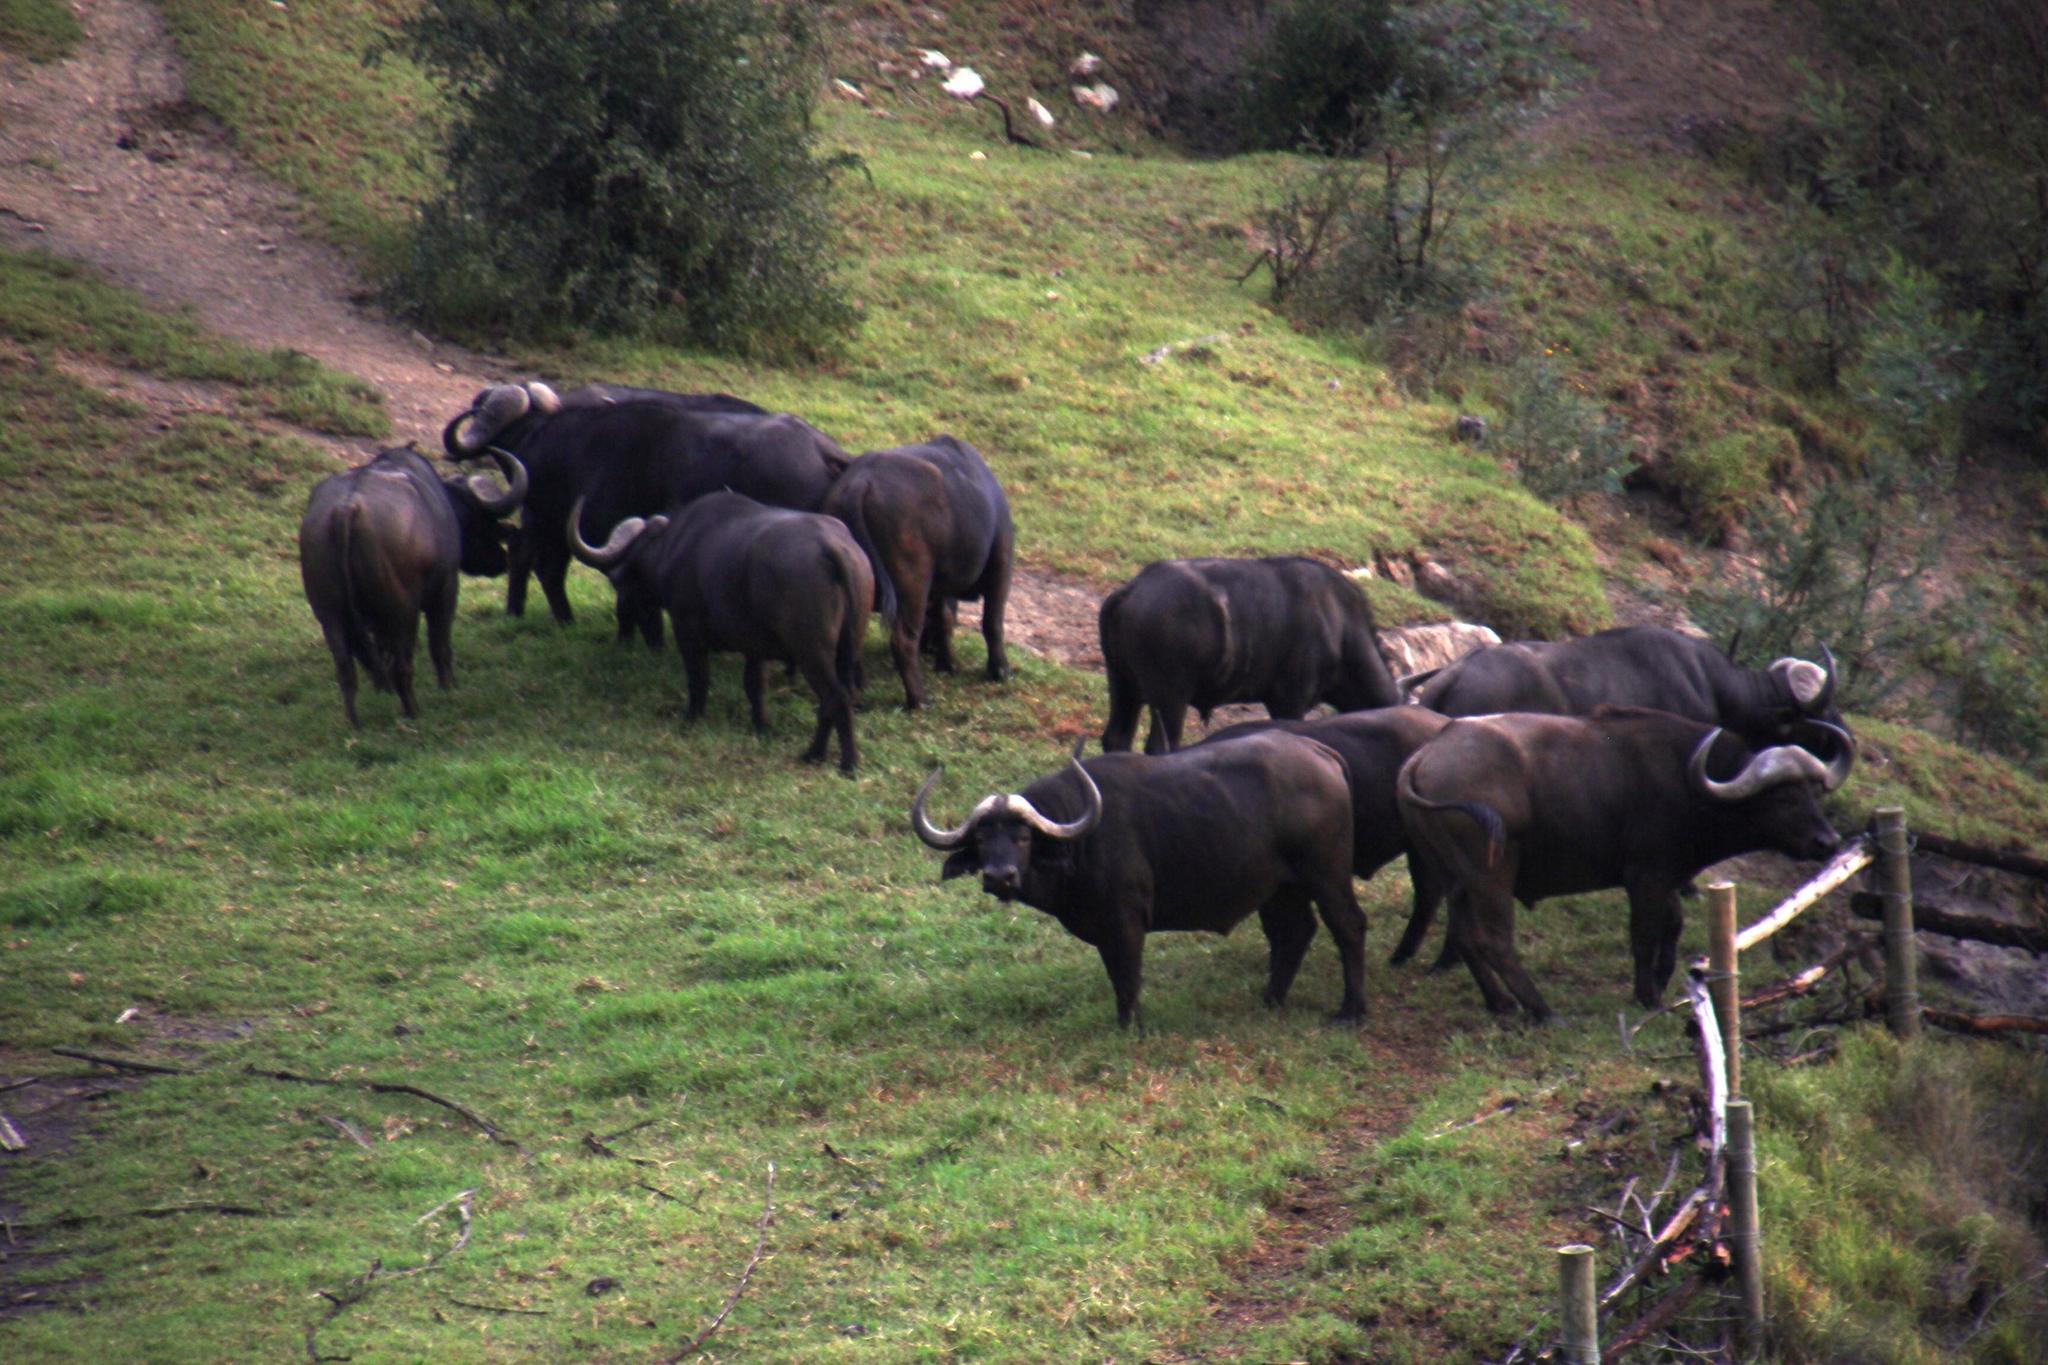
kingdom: Animalia
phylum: Chordata
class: Mammalia
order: Artiodactyla
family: Bovidae
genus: Syncerus
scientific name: Syncerus caffer
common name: African buffalo
